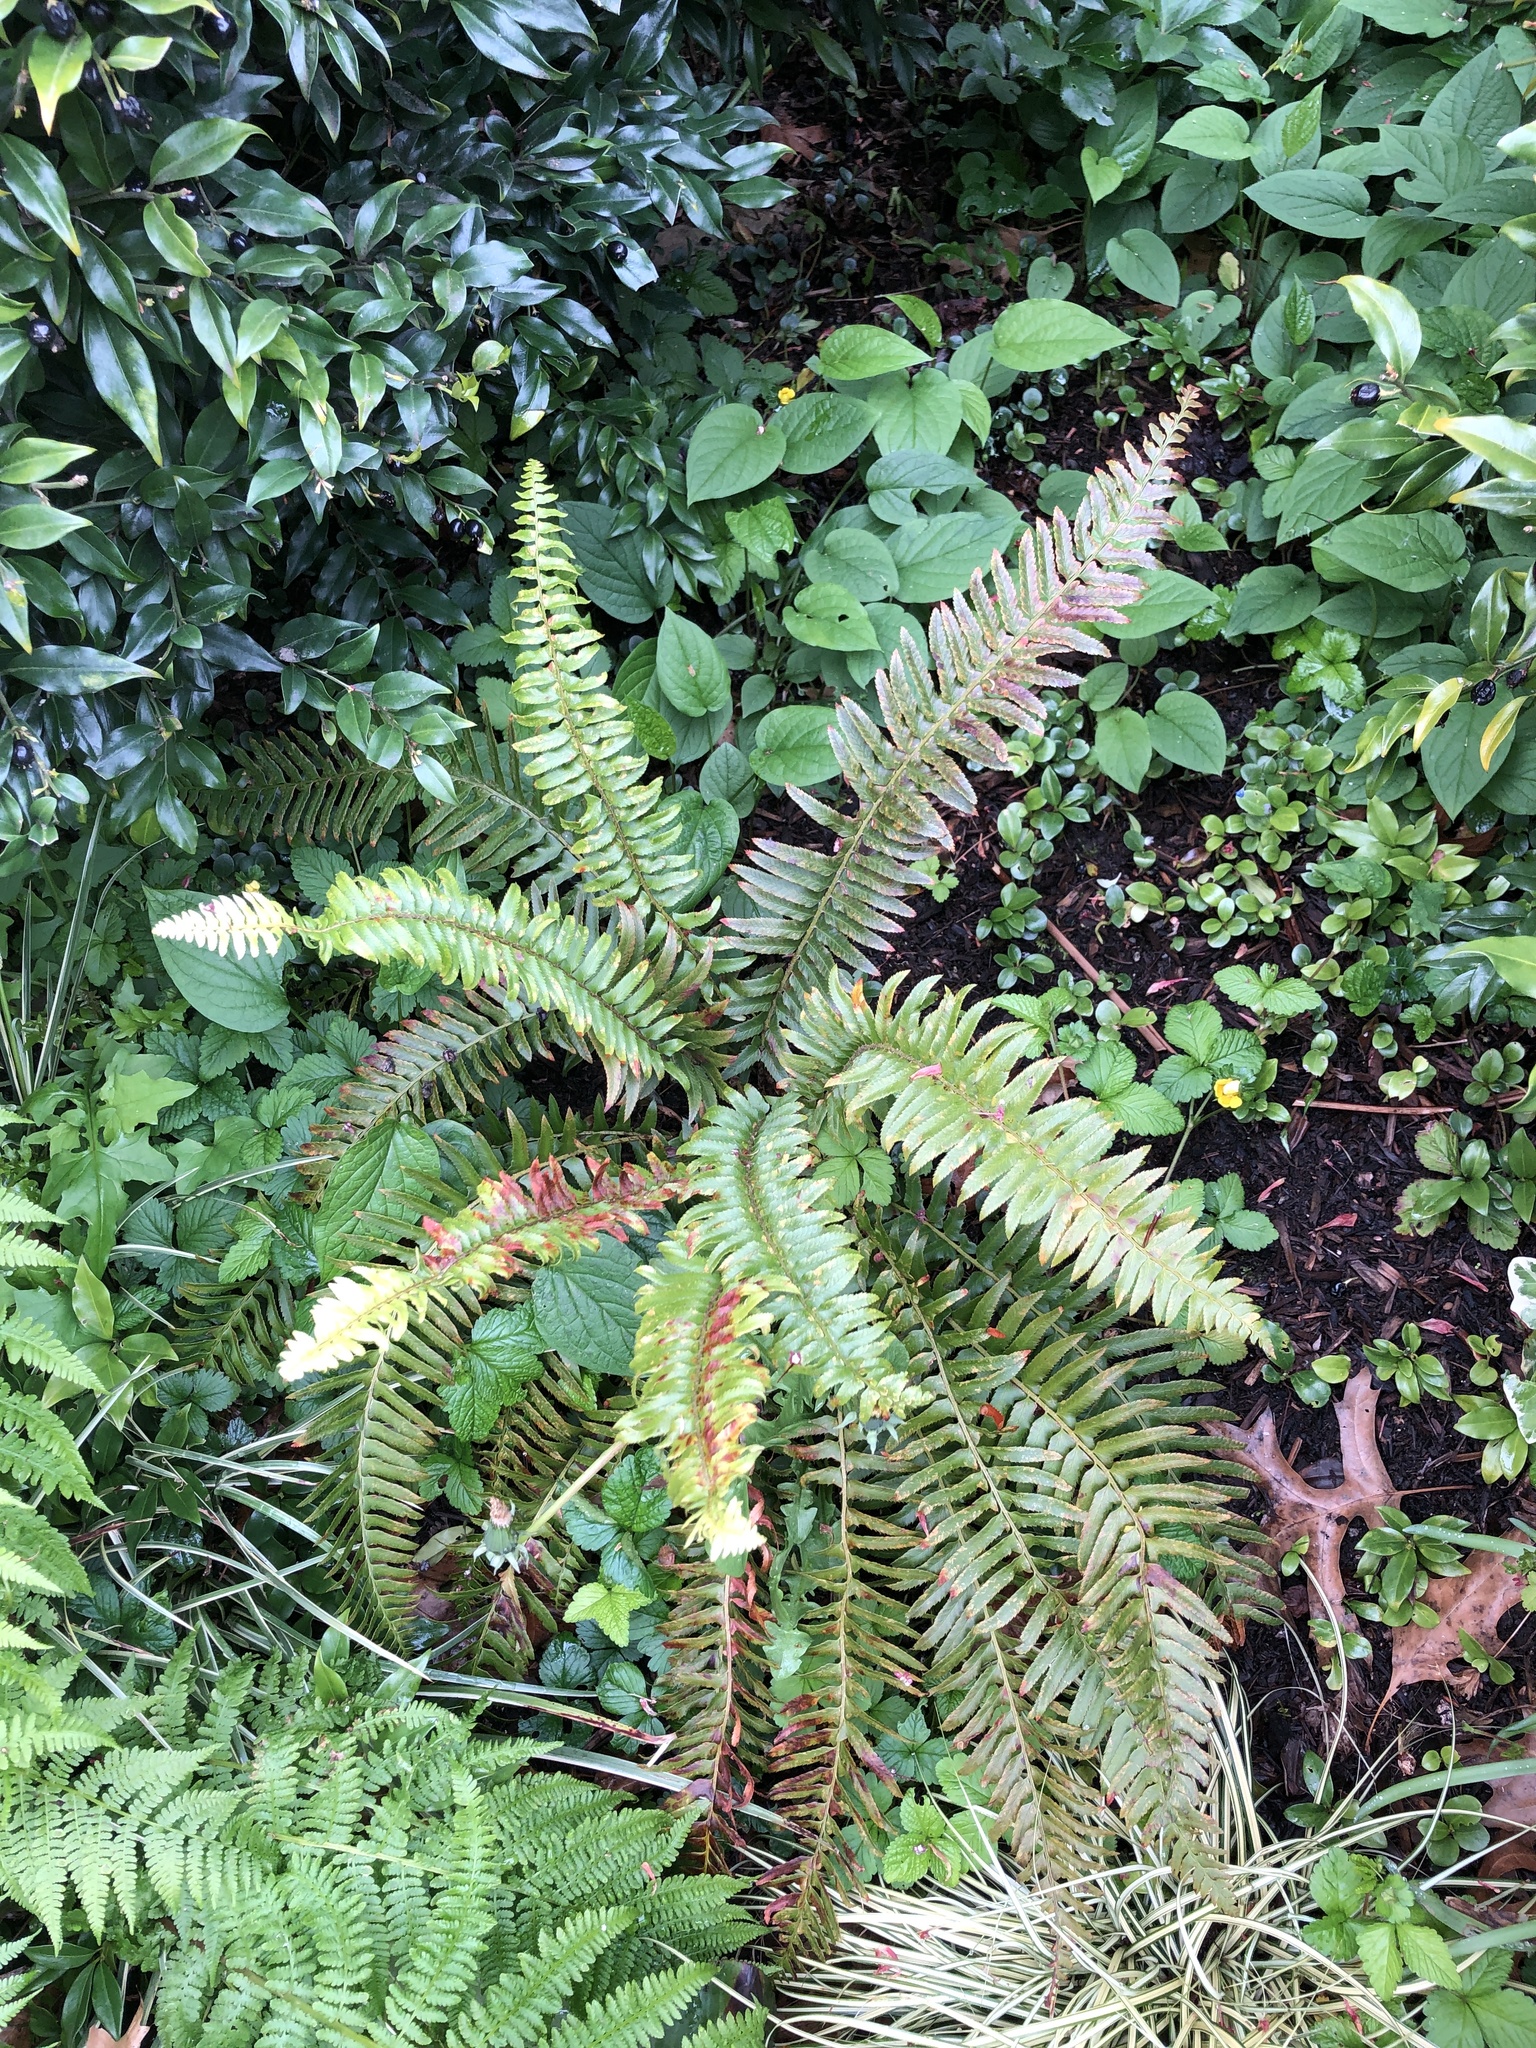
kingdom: Plantae
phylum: Tracheophyta
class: Polypodiopsida
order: Polypodiales
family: Dryopteridaceae
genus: Polystichum
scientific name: Polystichum munitum
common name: Western sword-fern
